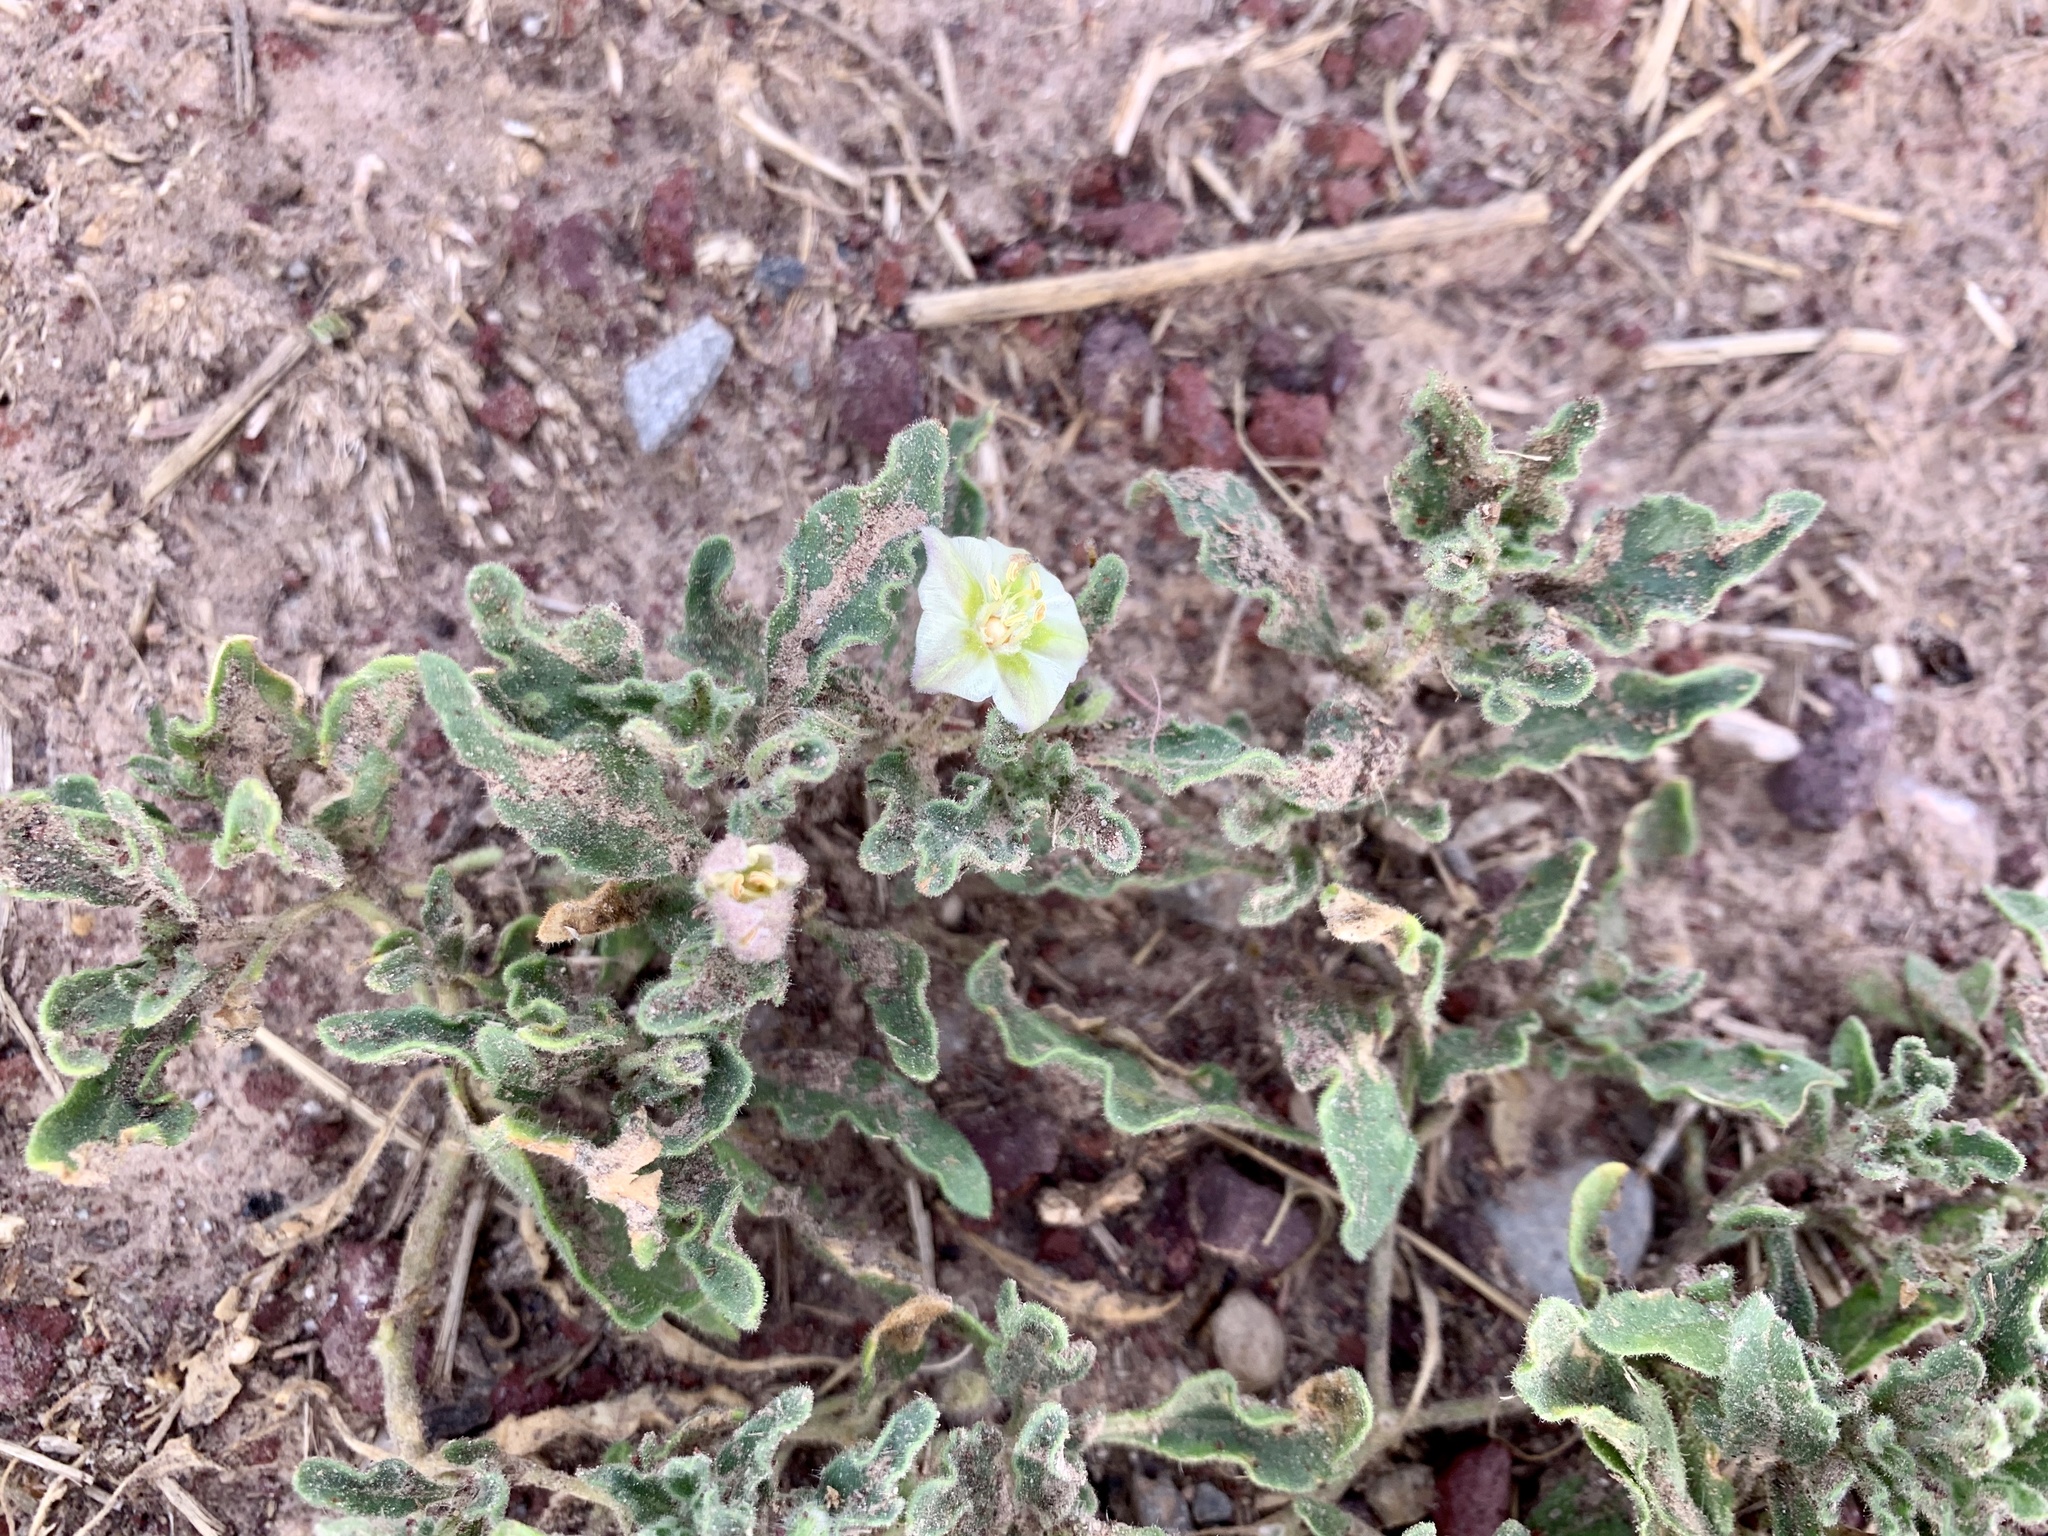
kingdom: Plantae
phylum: Tracheophyta
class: Magnoliopsida
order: Solanales
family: Solanaceae
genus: Chamaesaracha
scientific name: Chamaesaracha sordida
